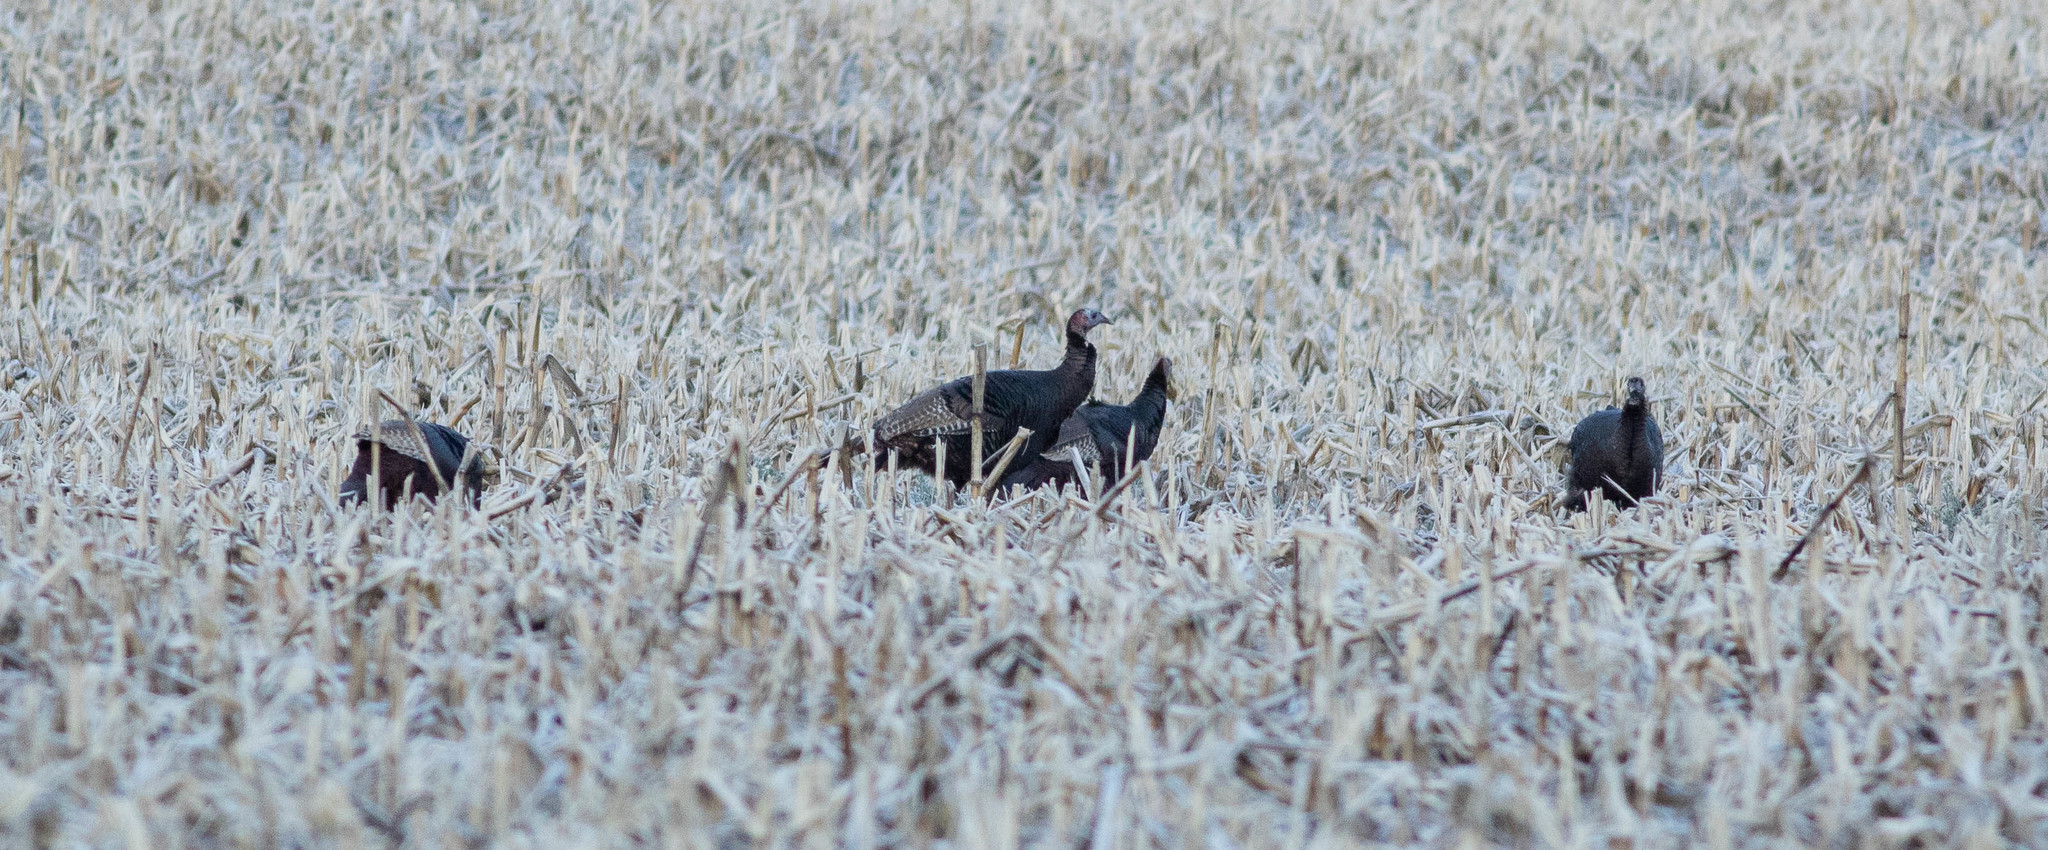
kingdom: Animalia
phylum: Chordata
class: Aves
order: Galliformes
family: Phasianidae
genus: Meleagris
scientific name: Meleagris gallopavo
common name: Wild turkey
